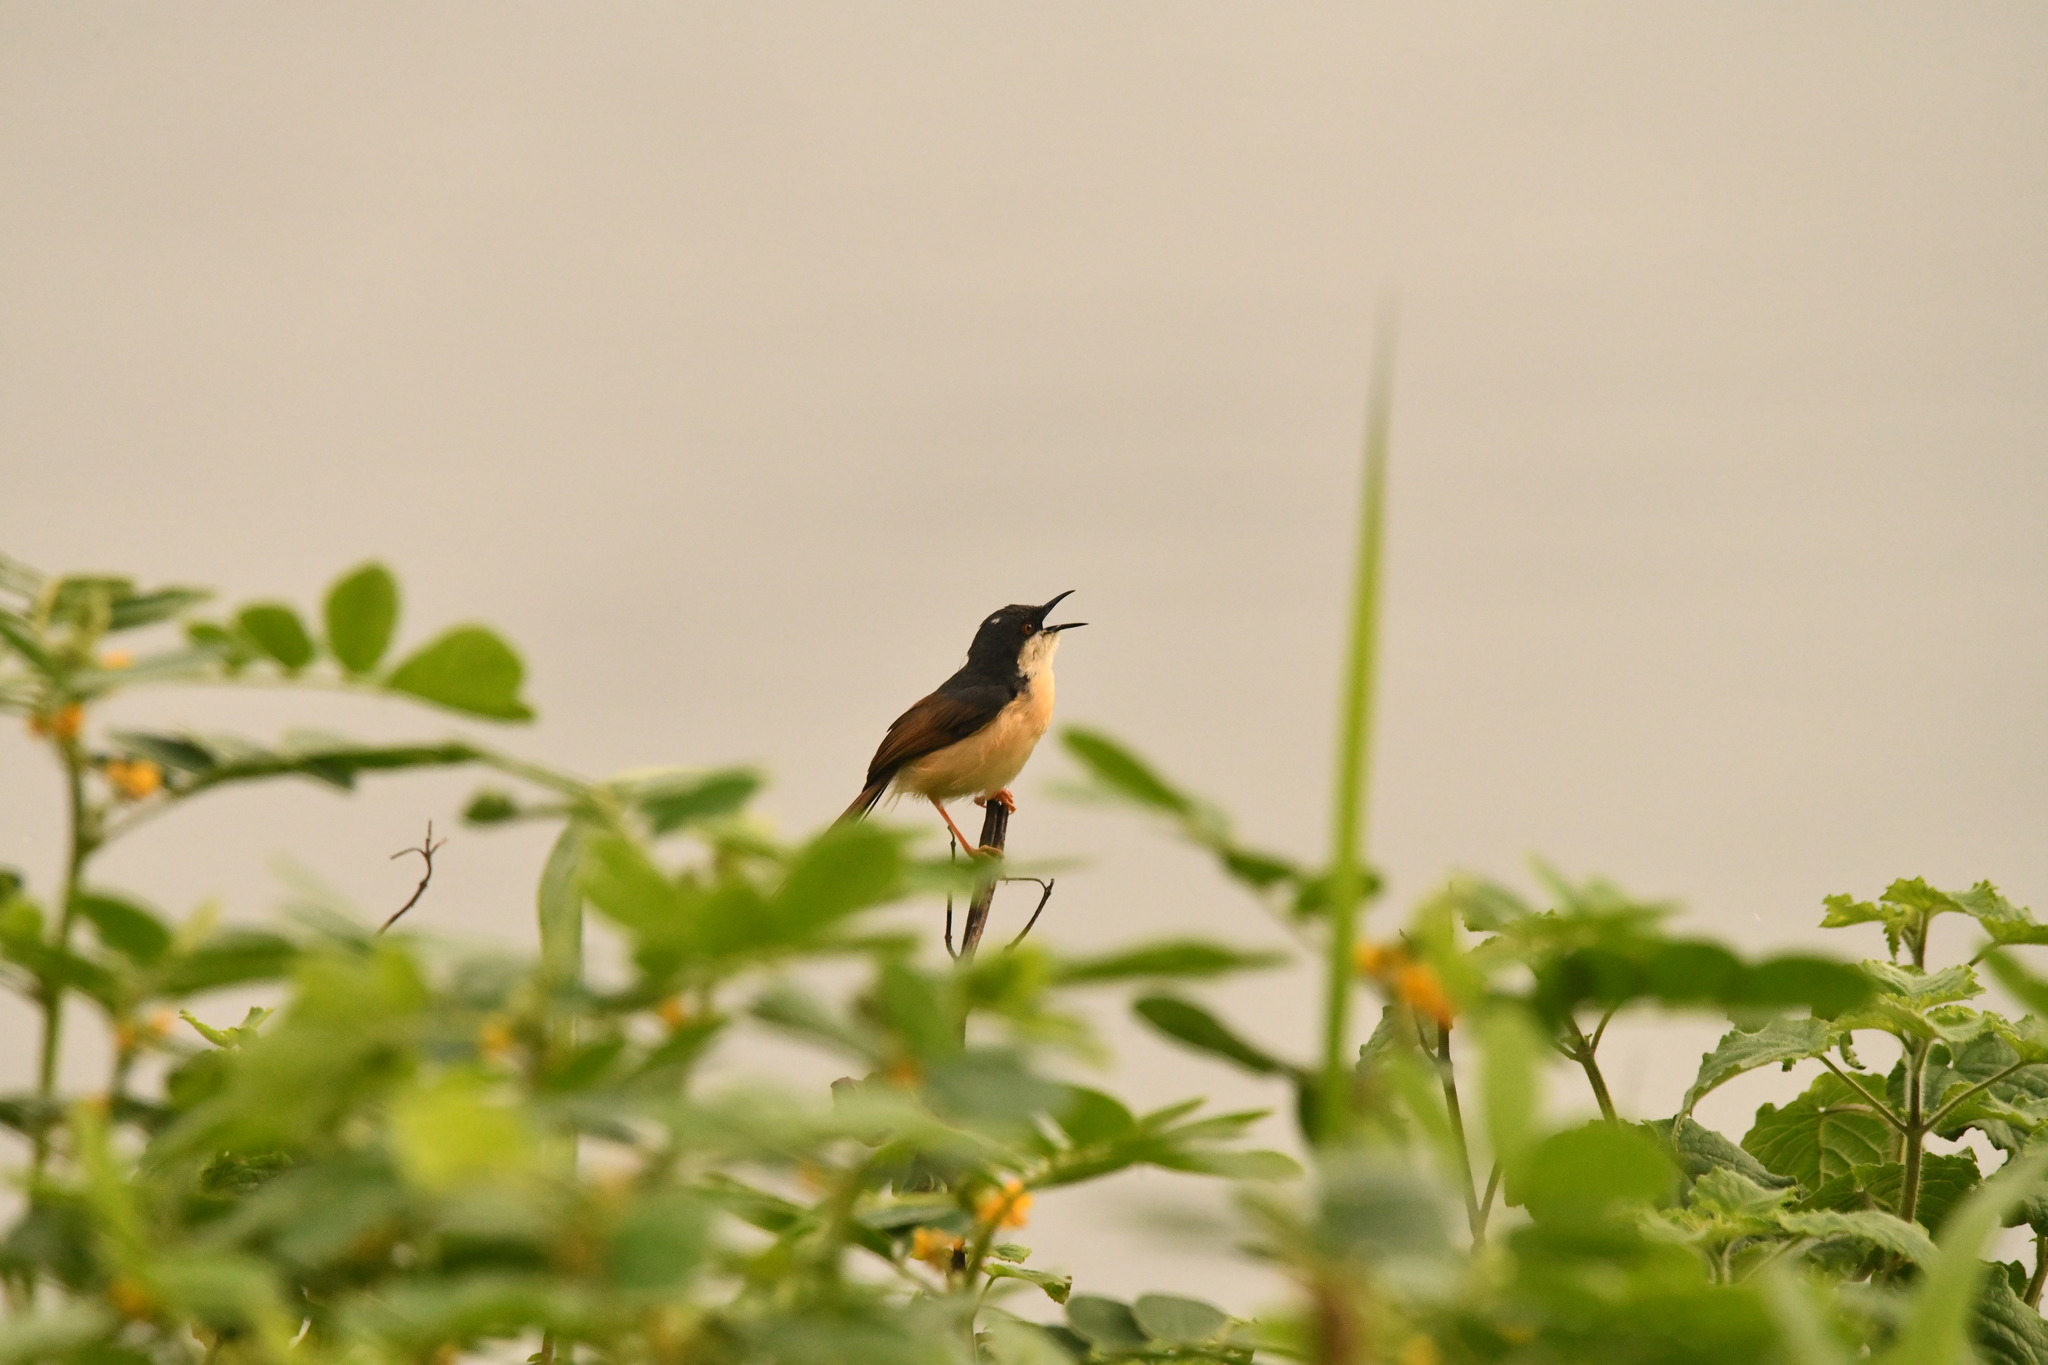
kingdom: Animalia
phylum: Chordata
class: Aves
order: Passeriformes
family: Cisticolidae
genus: Prinia
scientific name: Prinia socialis
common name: Ashy prinia
